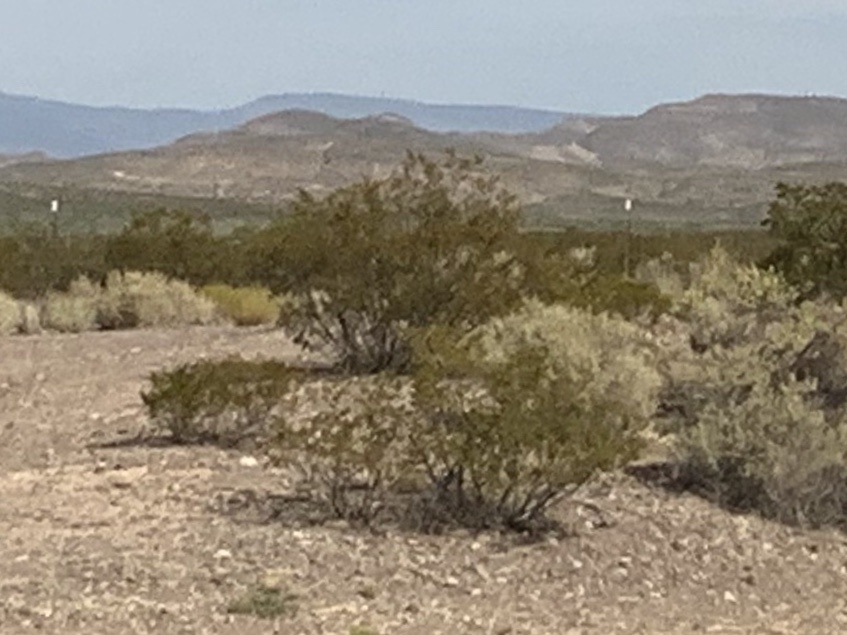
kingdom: Plantae
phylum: Tracheophyta
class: Magnoliopsida
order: Zygophyllales
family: Zygophyllaceae
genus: Larrea
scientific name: Larrea tridentata
